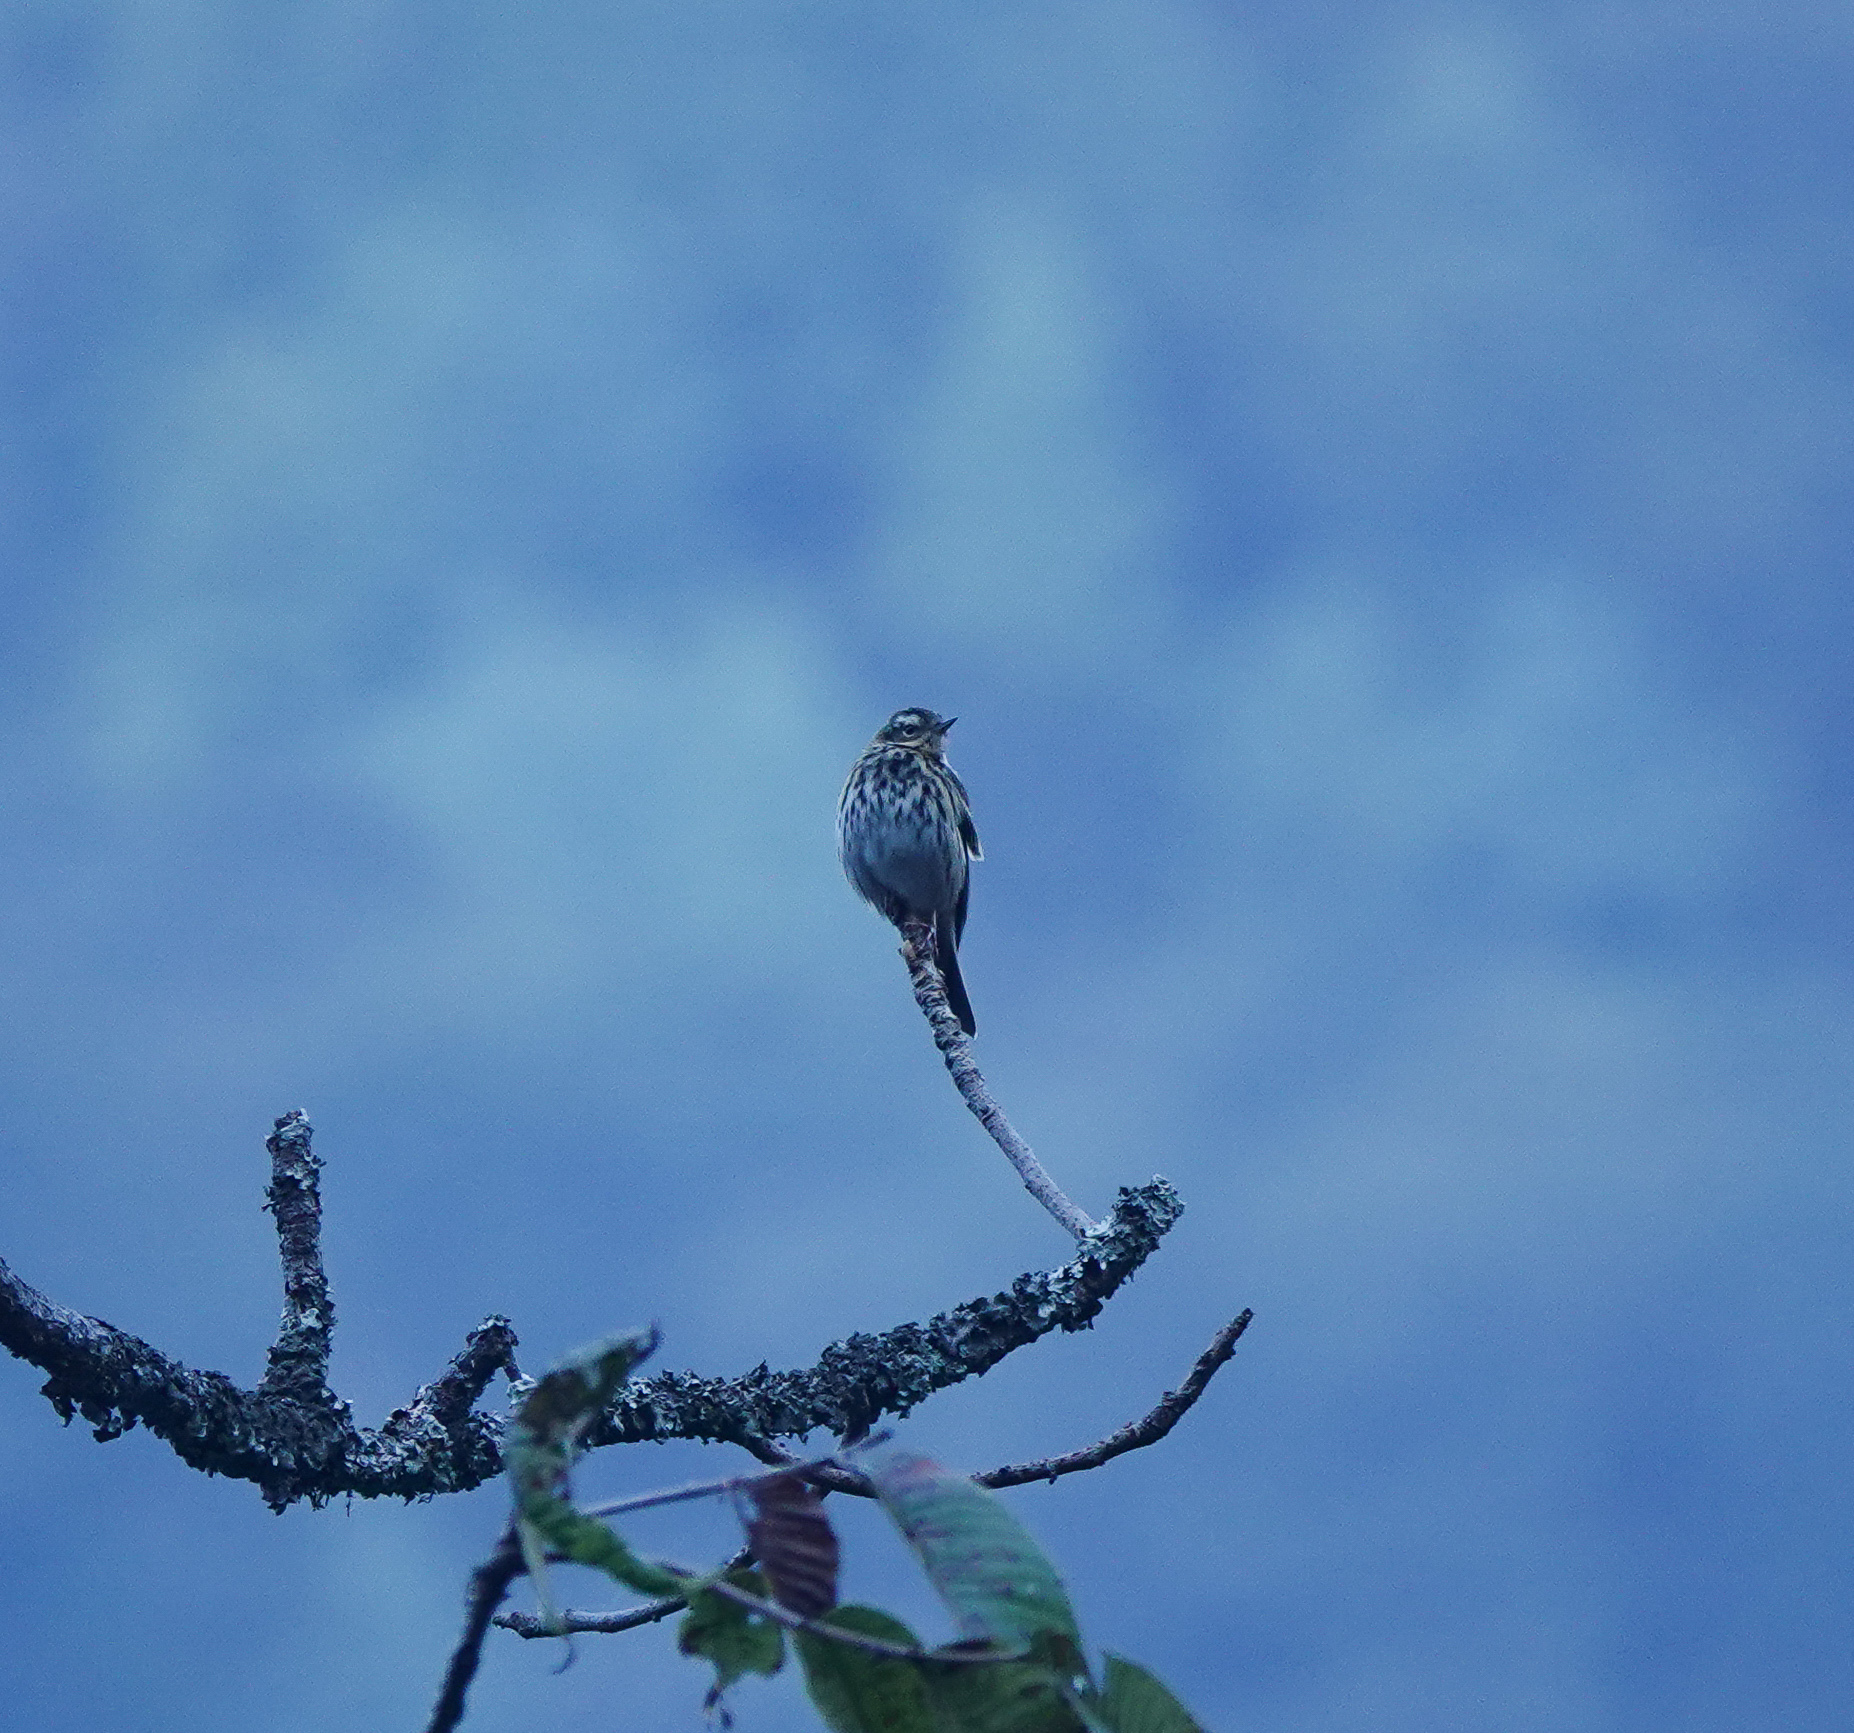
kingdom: Animalia
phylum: Chordata
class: Aves
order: Passeriformes
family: Motacillidae
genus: Anthus
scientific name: Anthus hodgsoni
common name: Olive-backed pipit
